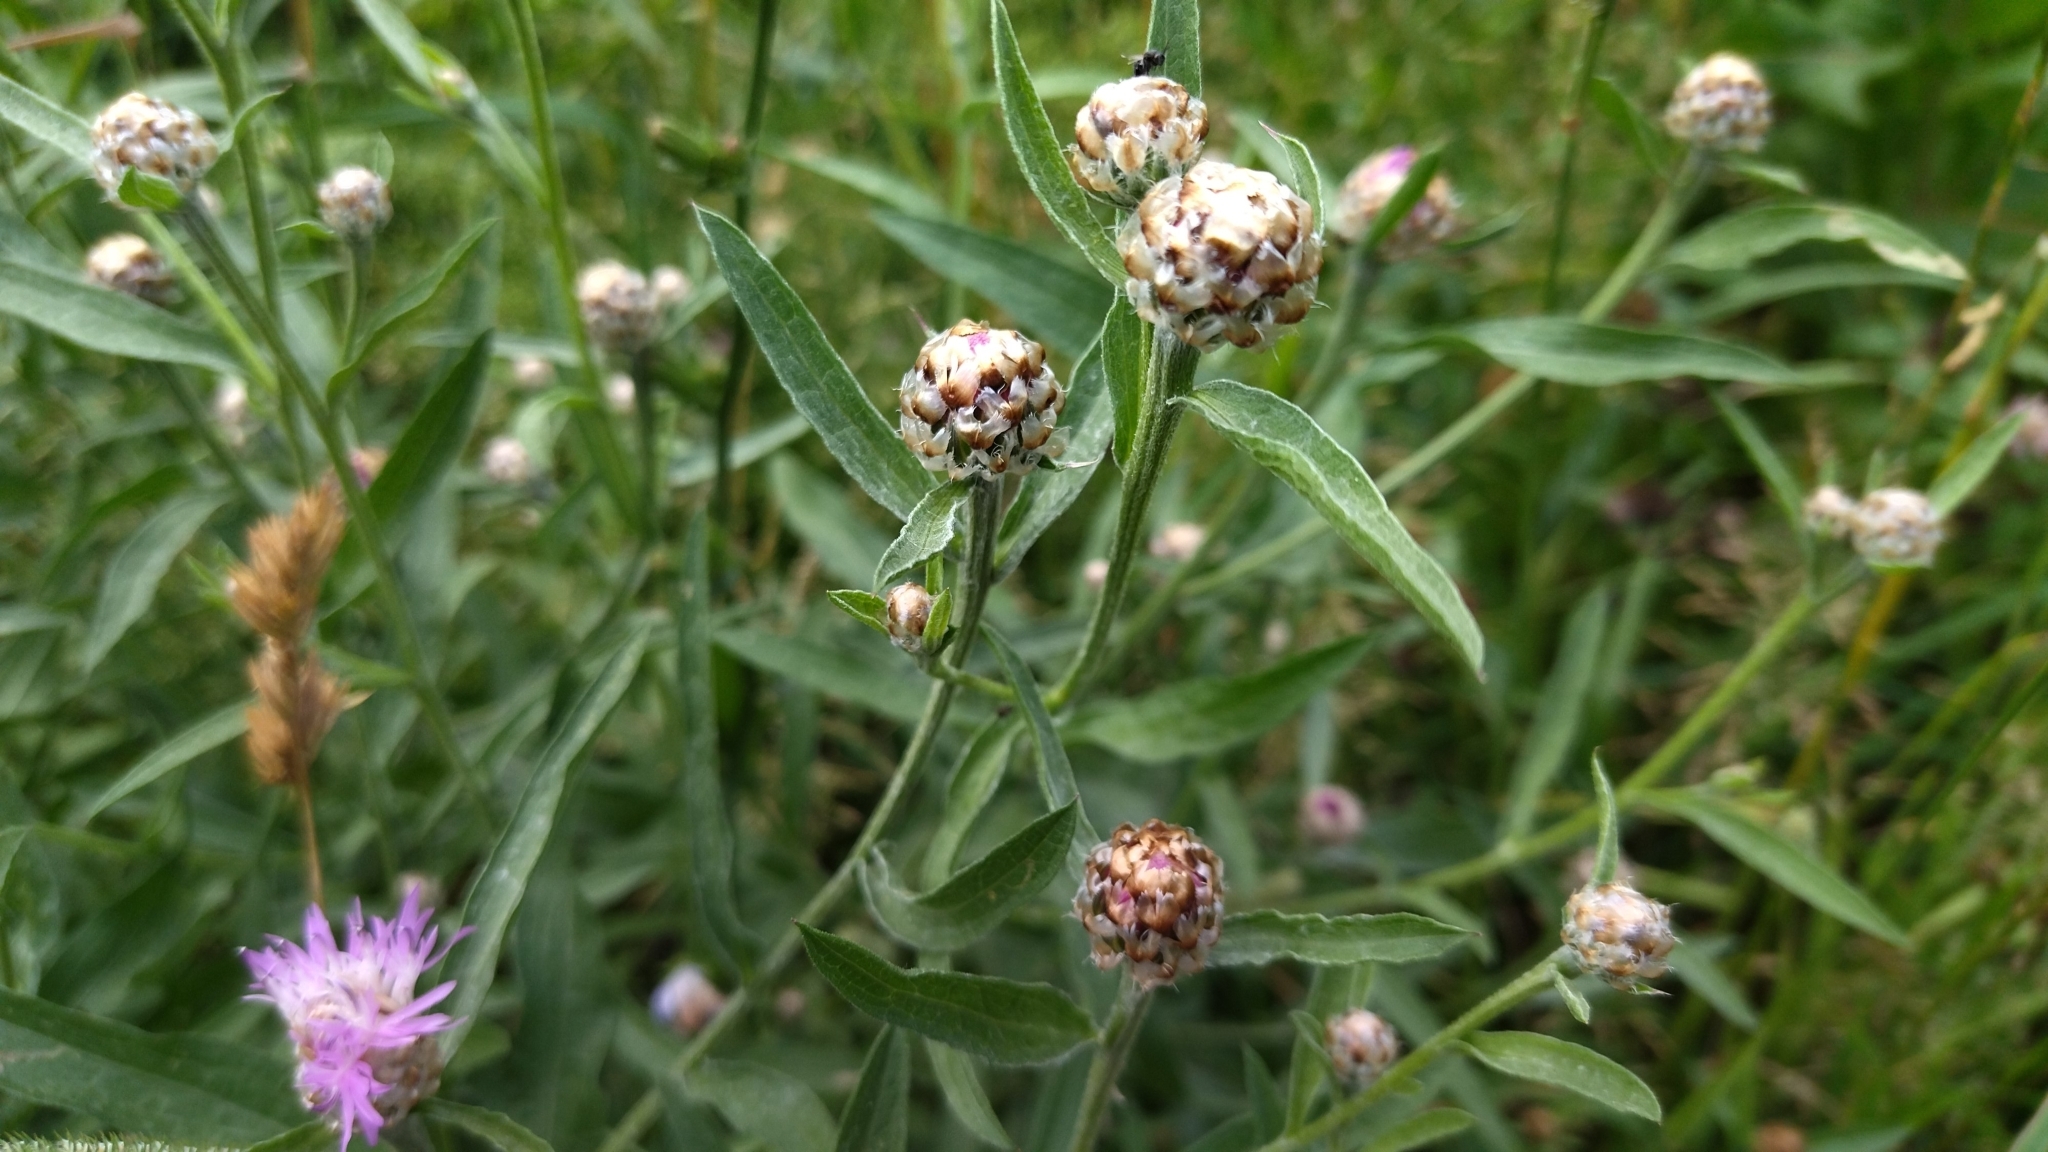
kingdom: Plantae
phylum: Tracheophyta
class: Magnoliopsida
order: Asterales
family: Asteraceae
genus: Centaurea
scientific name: Centaurea jacea
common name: Brown knapweed
